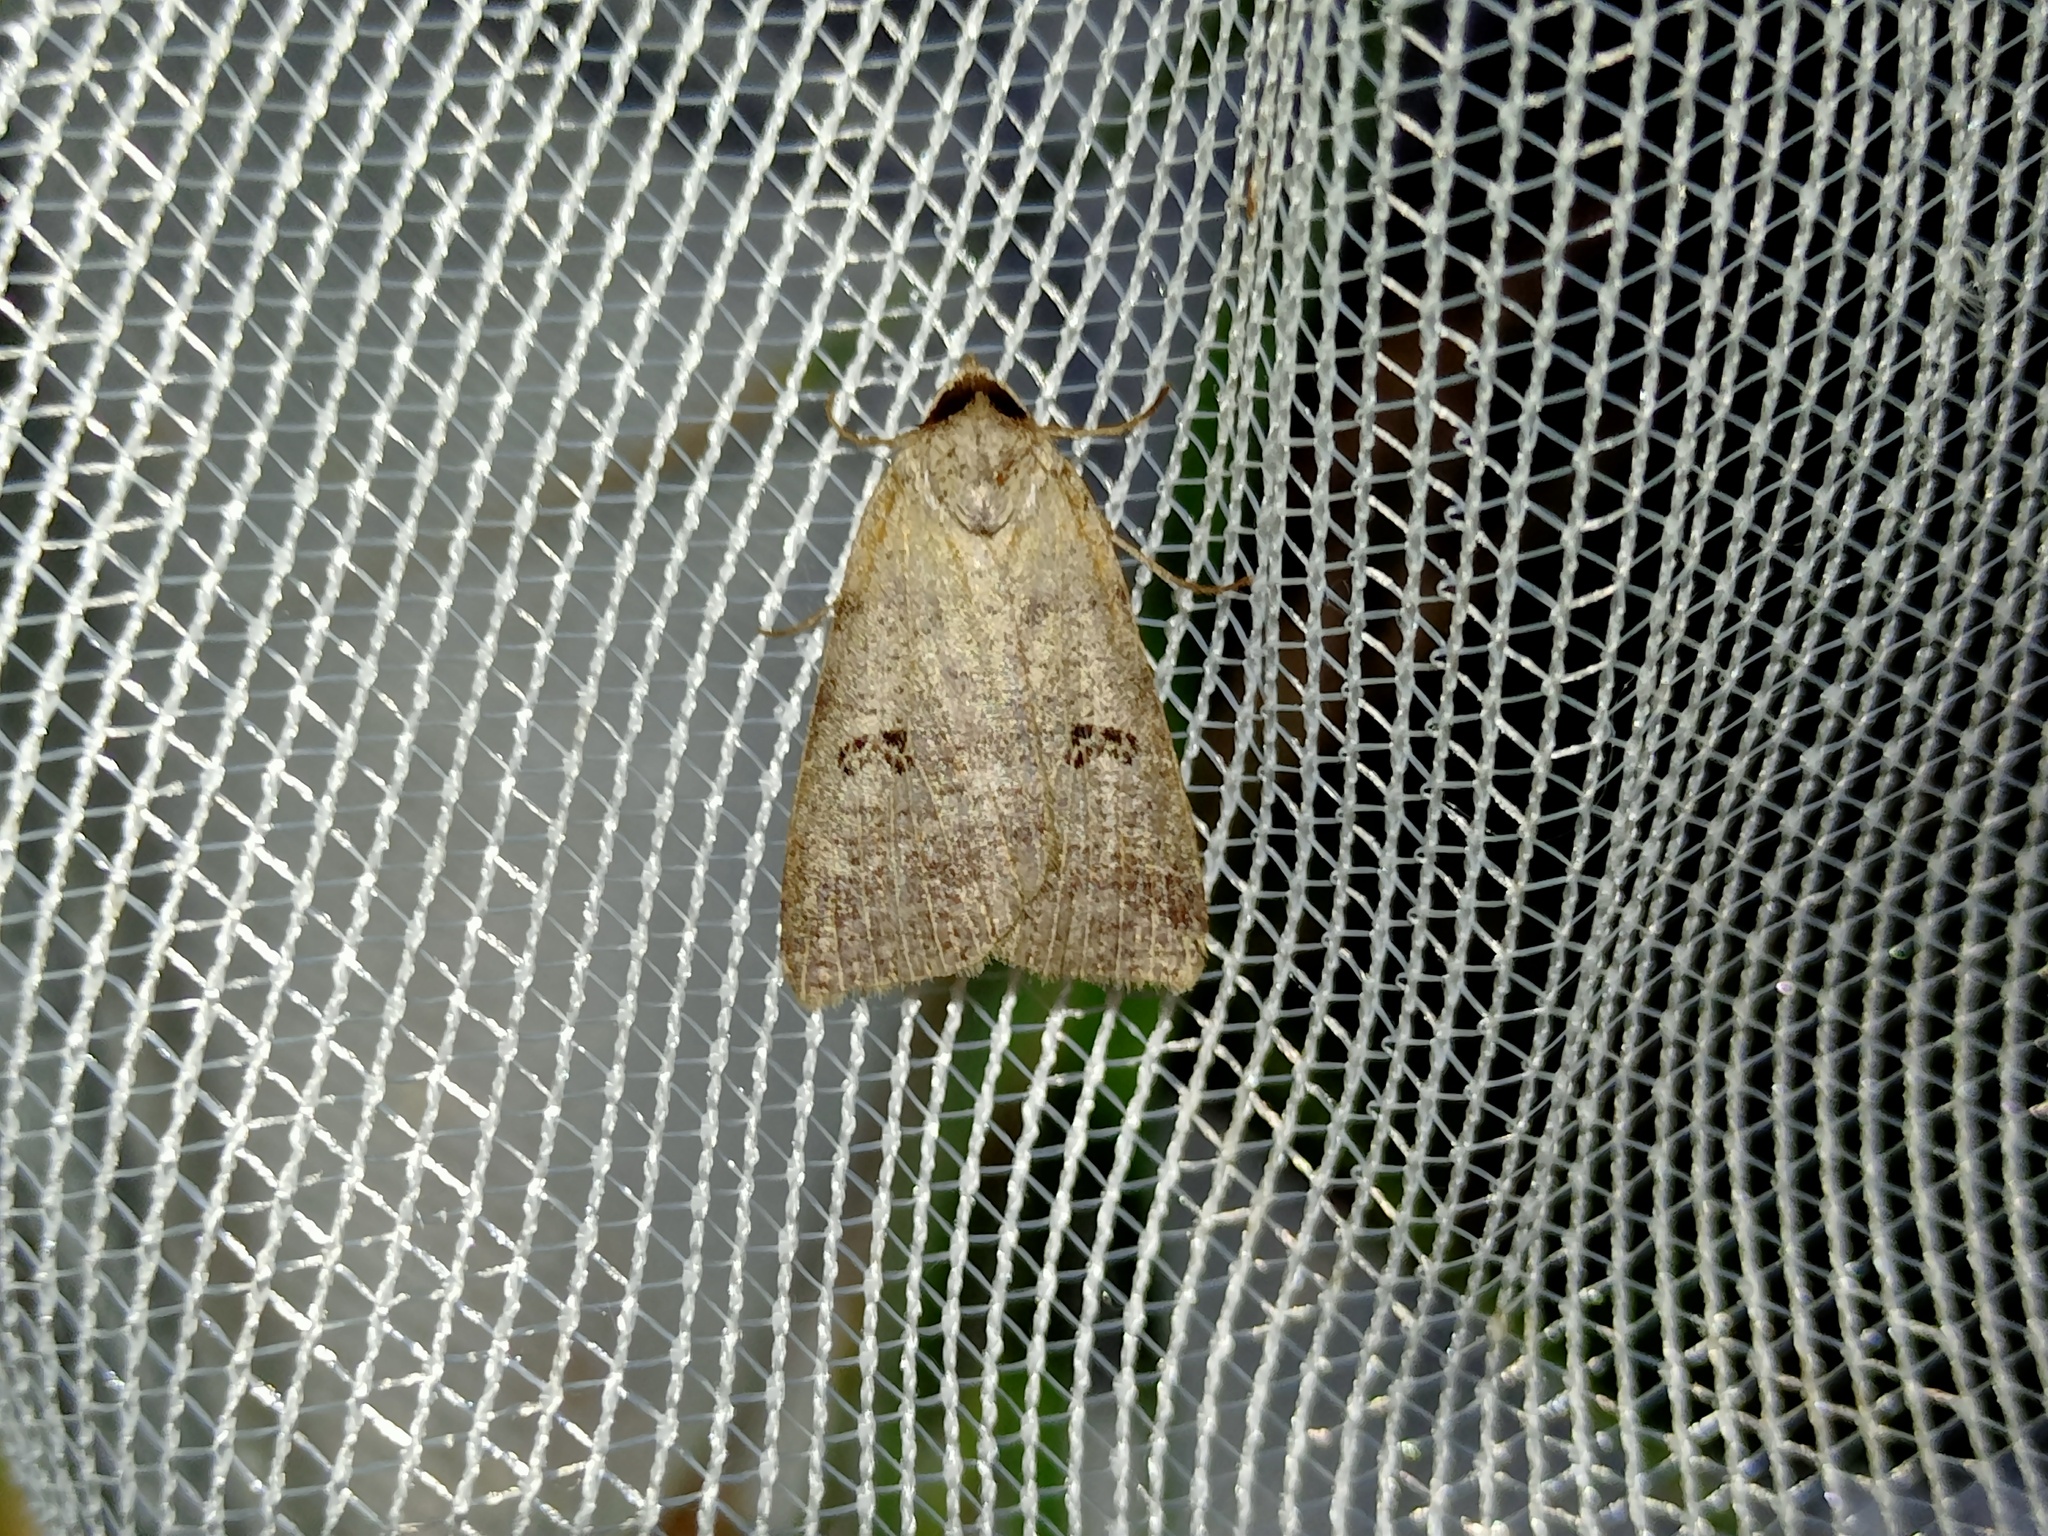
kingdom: Animalia
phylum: Arthropoda
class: Insecta
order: Lepidoptera
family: Erebidae
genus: Lygephila
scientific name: Lygephila viciae
